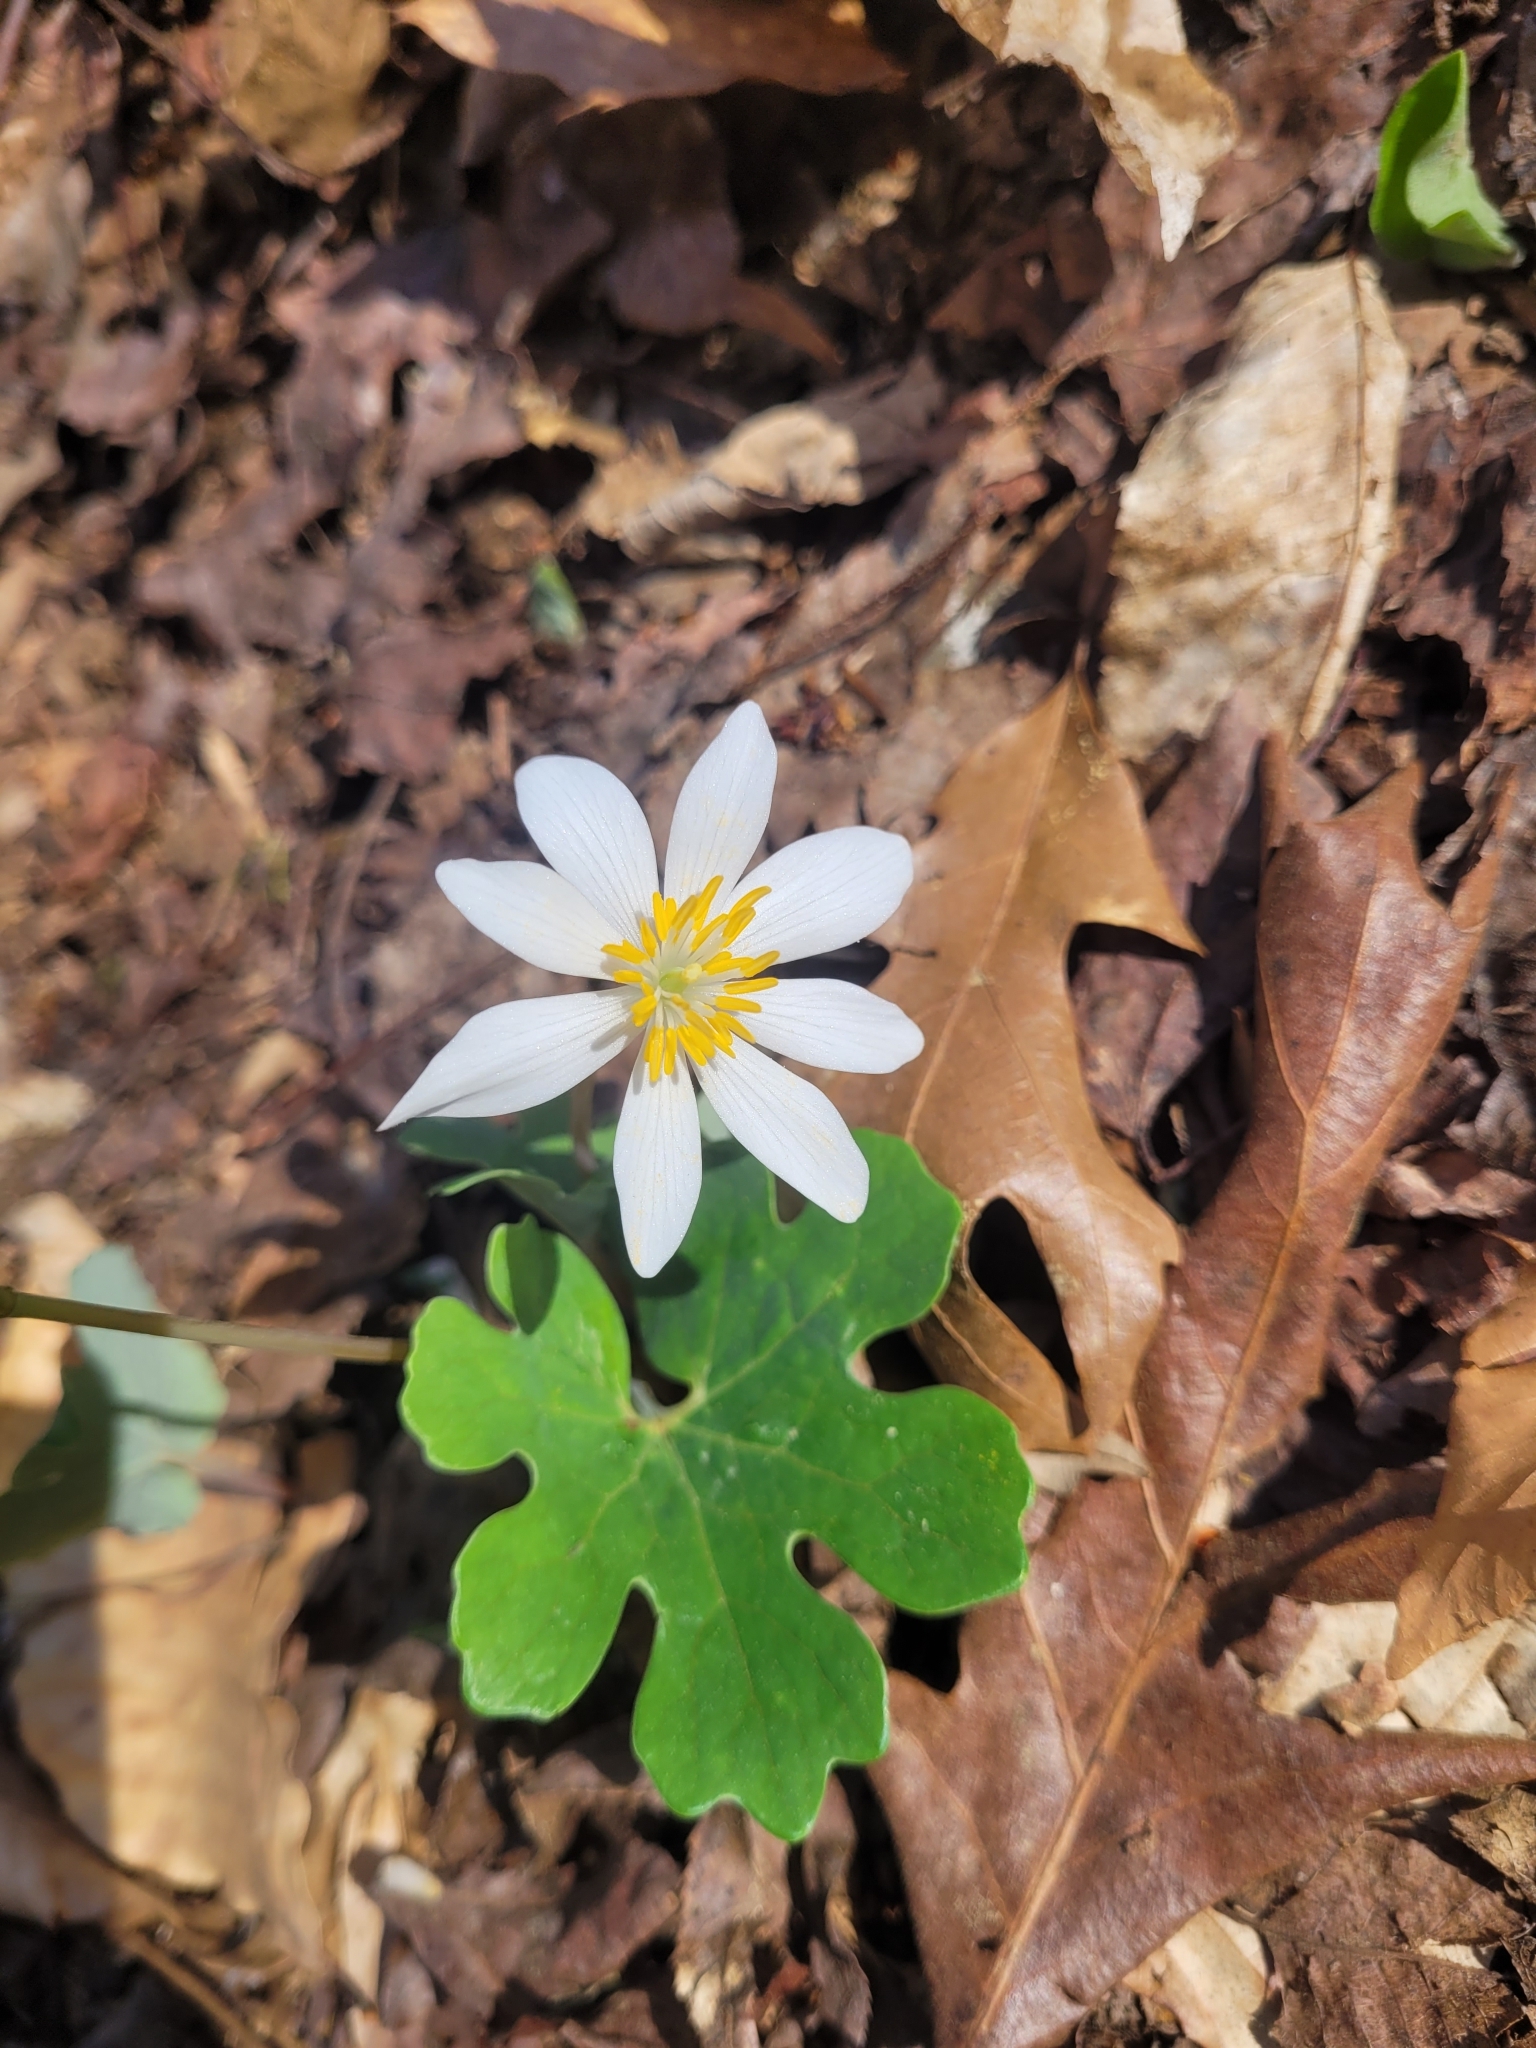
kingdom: Plantae
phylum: Tracheophyta
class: Magnoliopsida
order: Ranunculales
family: Papaveraceae
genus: Sanguinaria
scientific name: Sanguinaria canadensis
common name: Bloodroot
